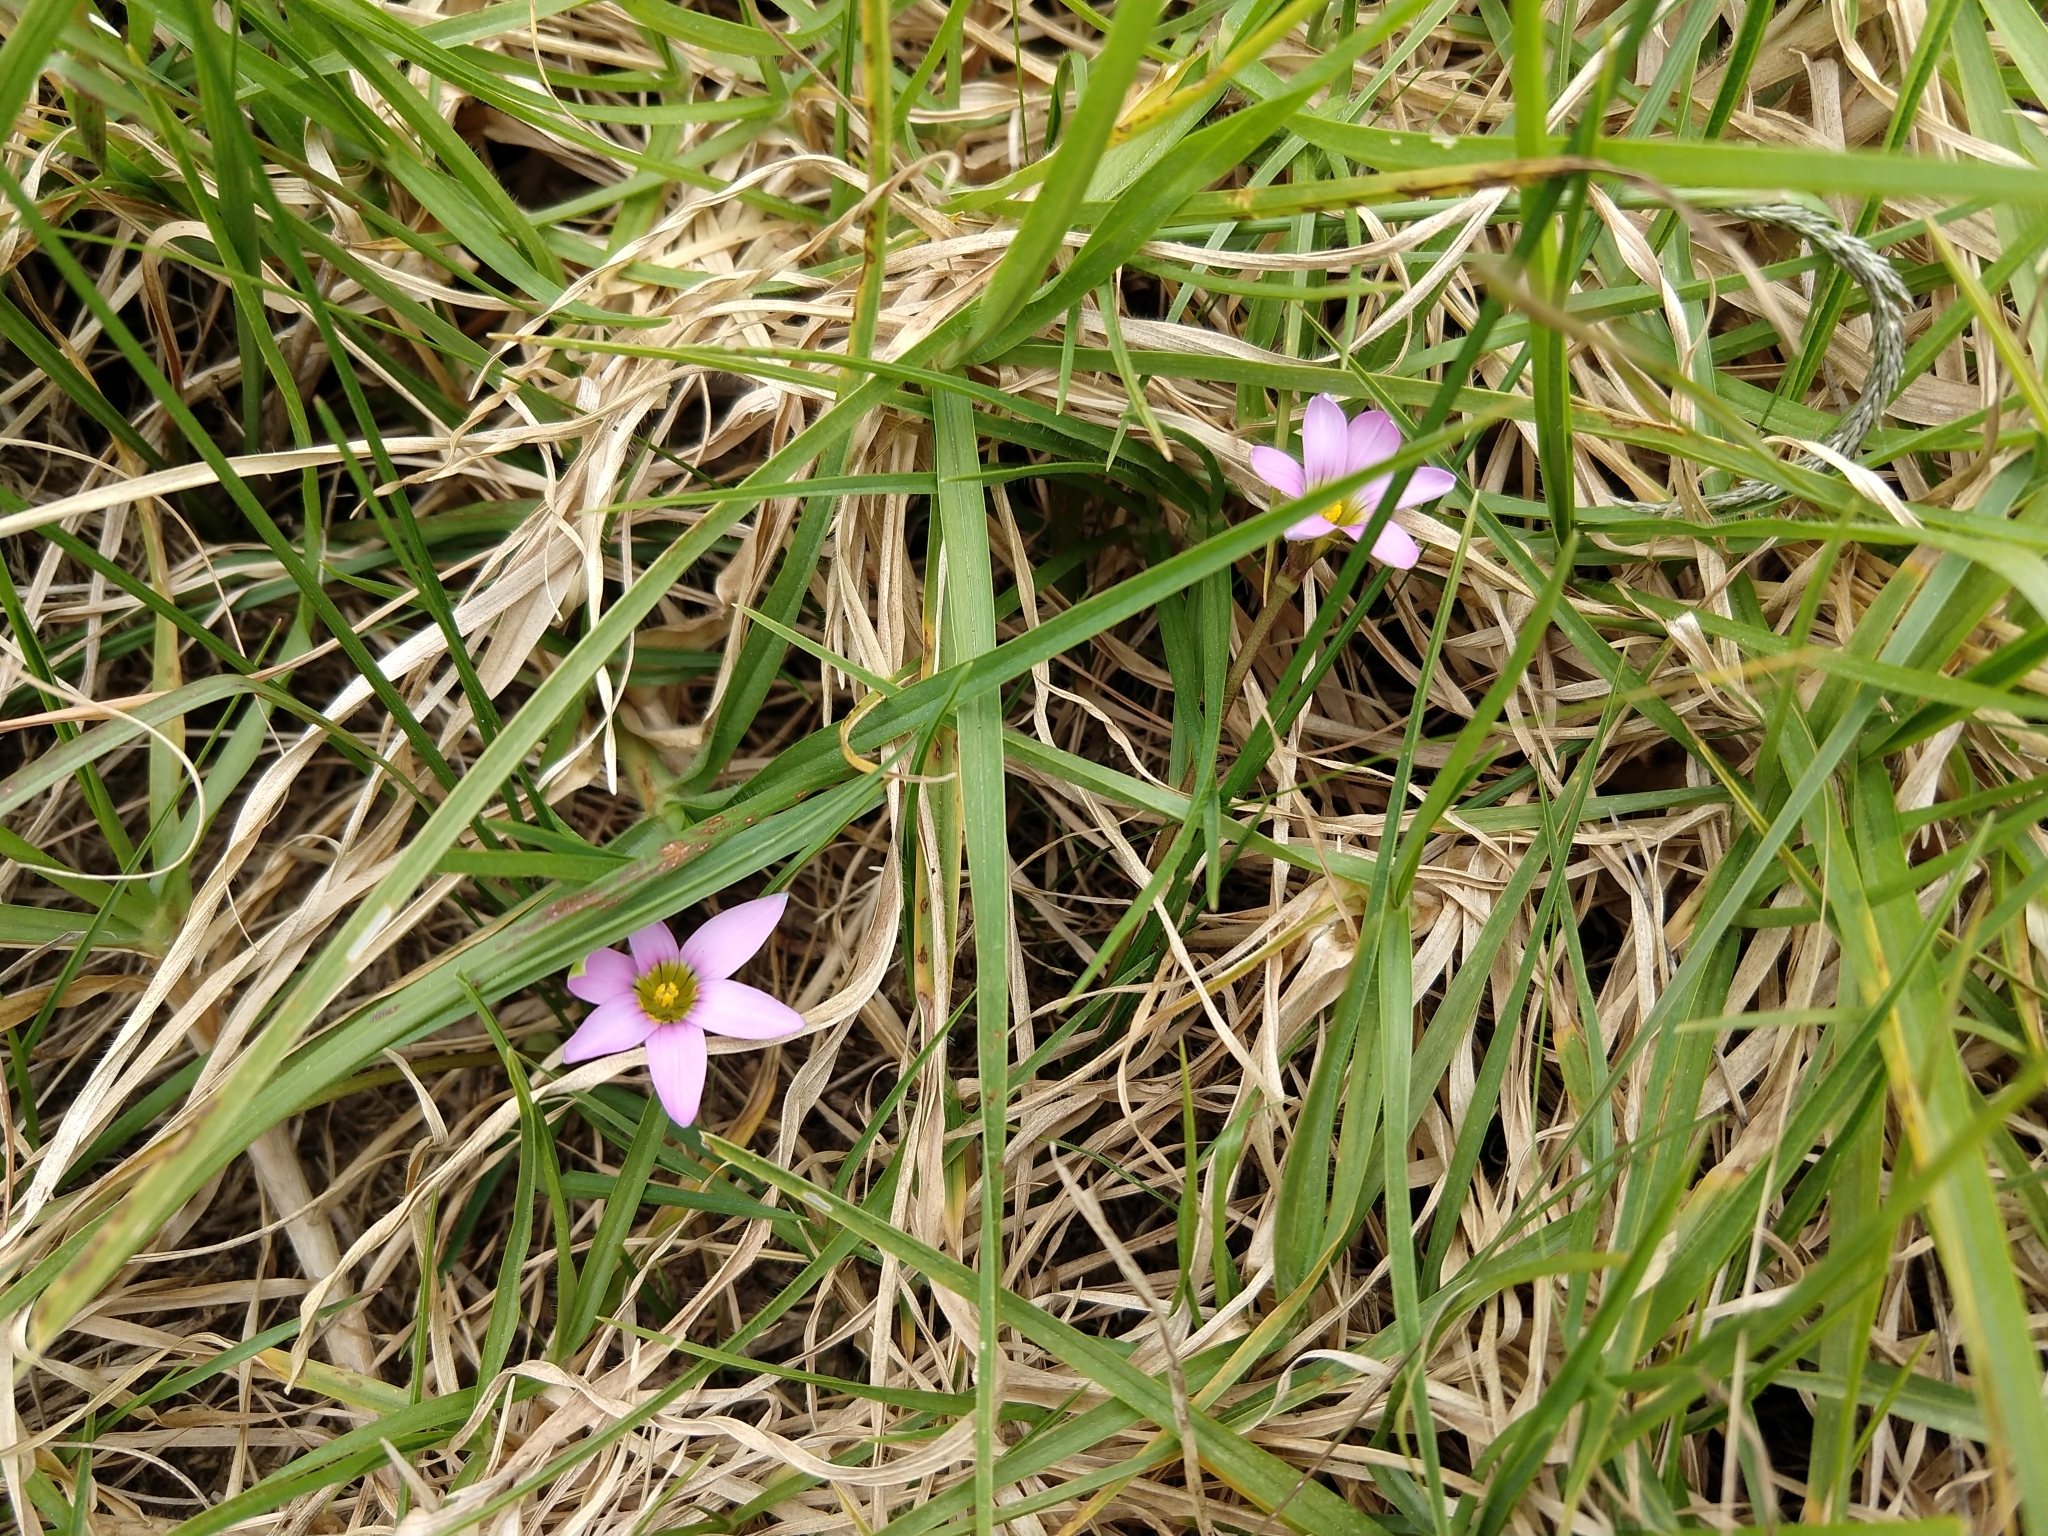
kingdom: Plantae
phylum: Tracheophyta
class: Liliopsida
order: Asparagales
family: Iridaceae
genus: Romulea
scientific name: Romulea rosea
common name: Oniongrass
